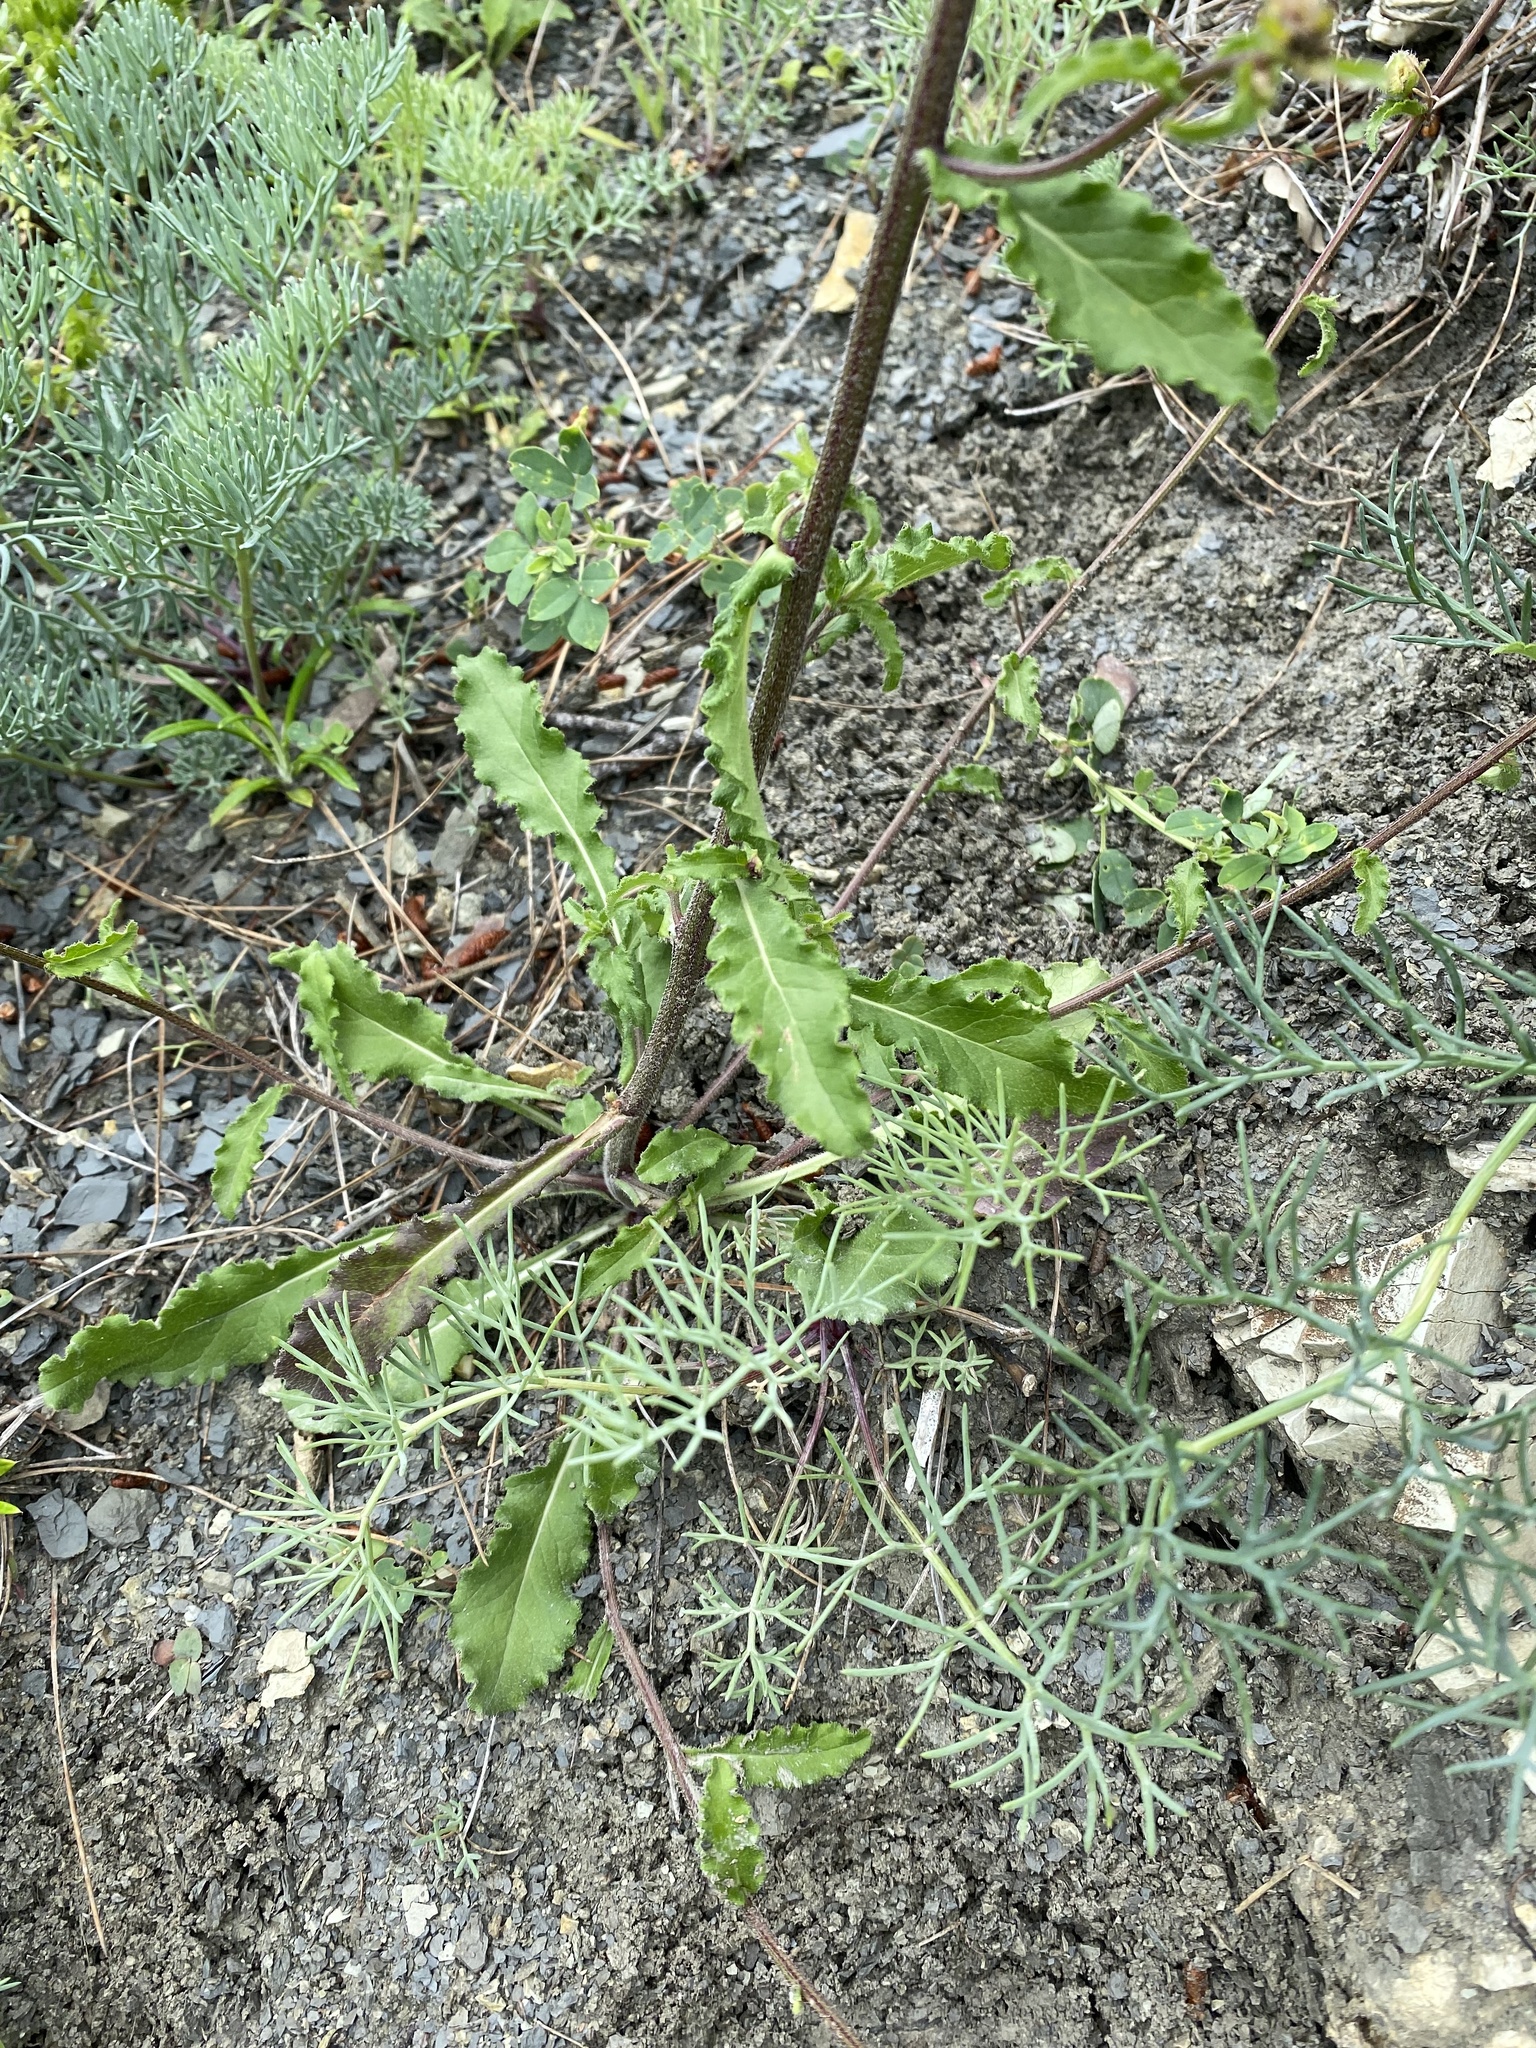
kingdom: Plantae
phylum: Tracheophyta
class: Magnoliopsida
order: Asterales
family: Campanulaceae
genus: Campanula
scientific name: Campanula komarovii
